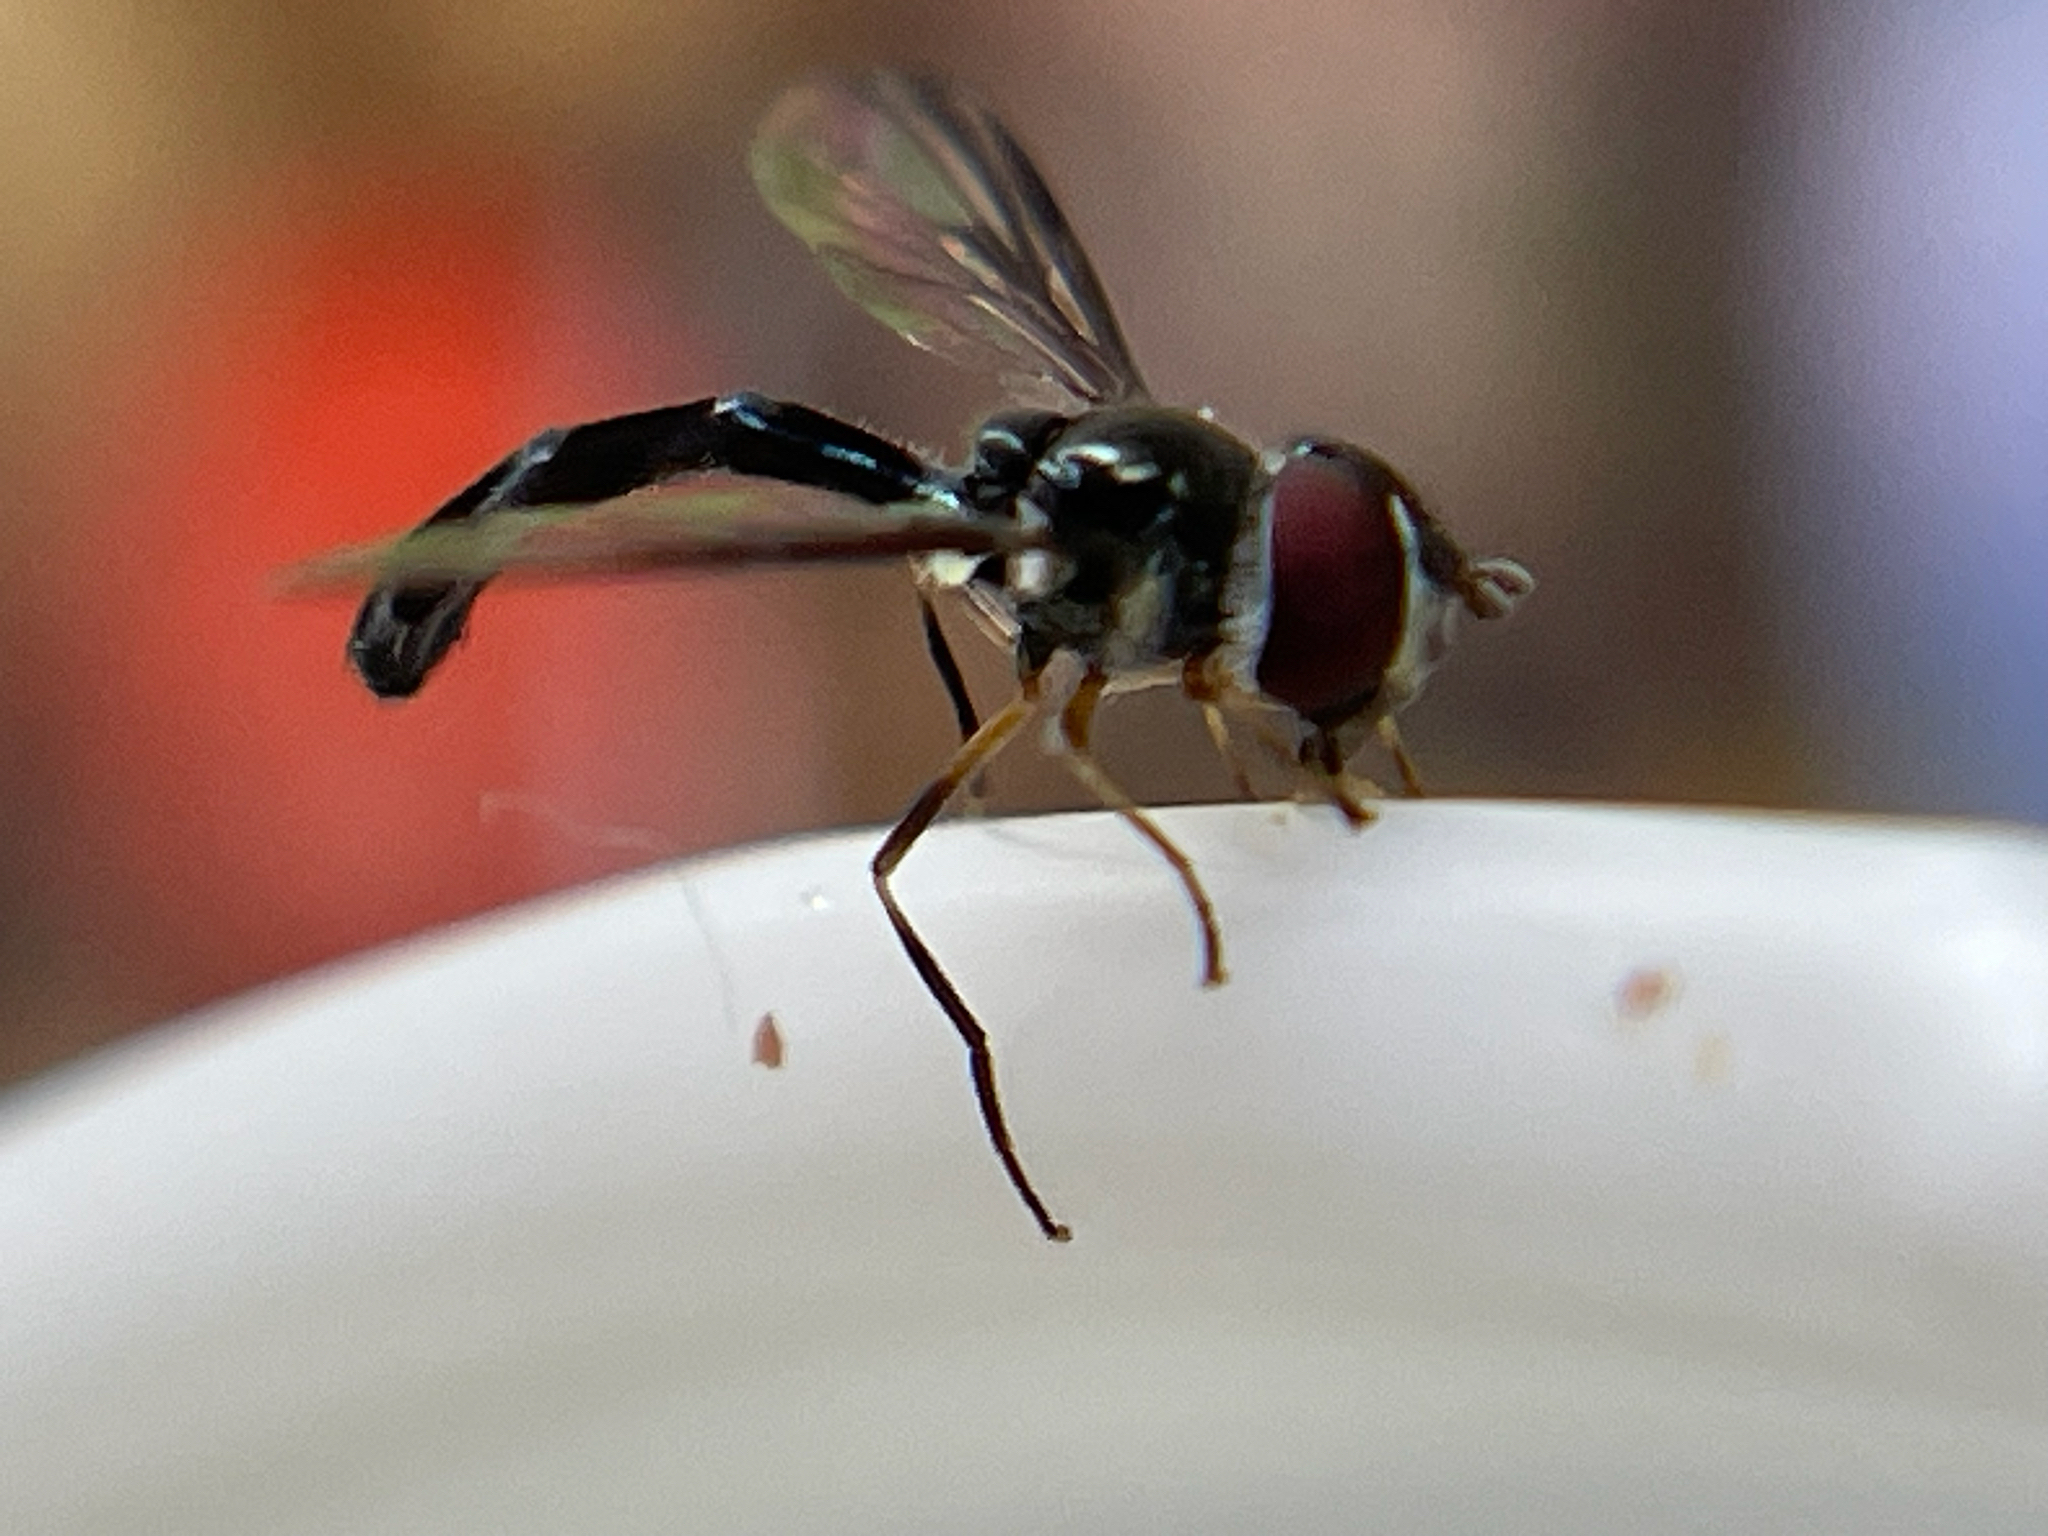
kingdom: Animalia
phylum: Arthropoda
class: Insecta
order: Diptera
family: Syrphidae
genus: Ocyptamus
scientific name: Ocyptamus costatus
